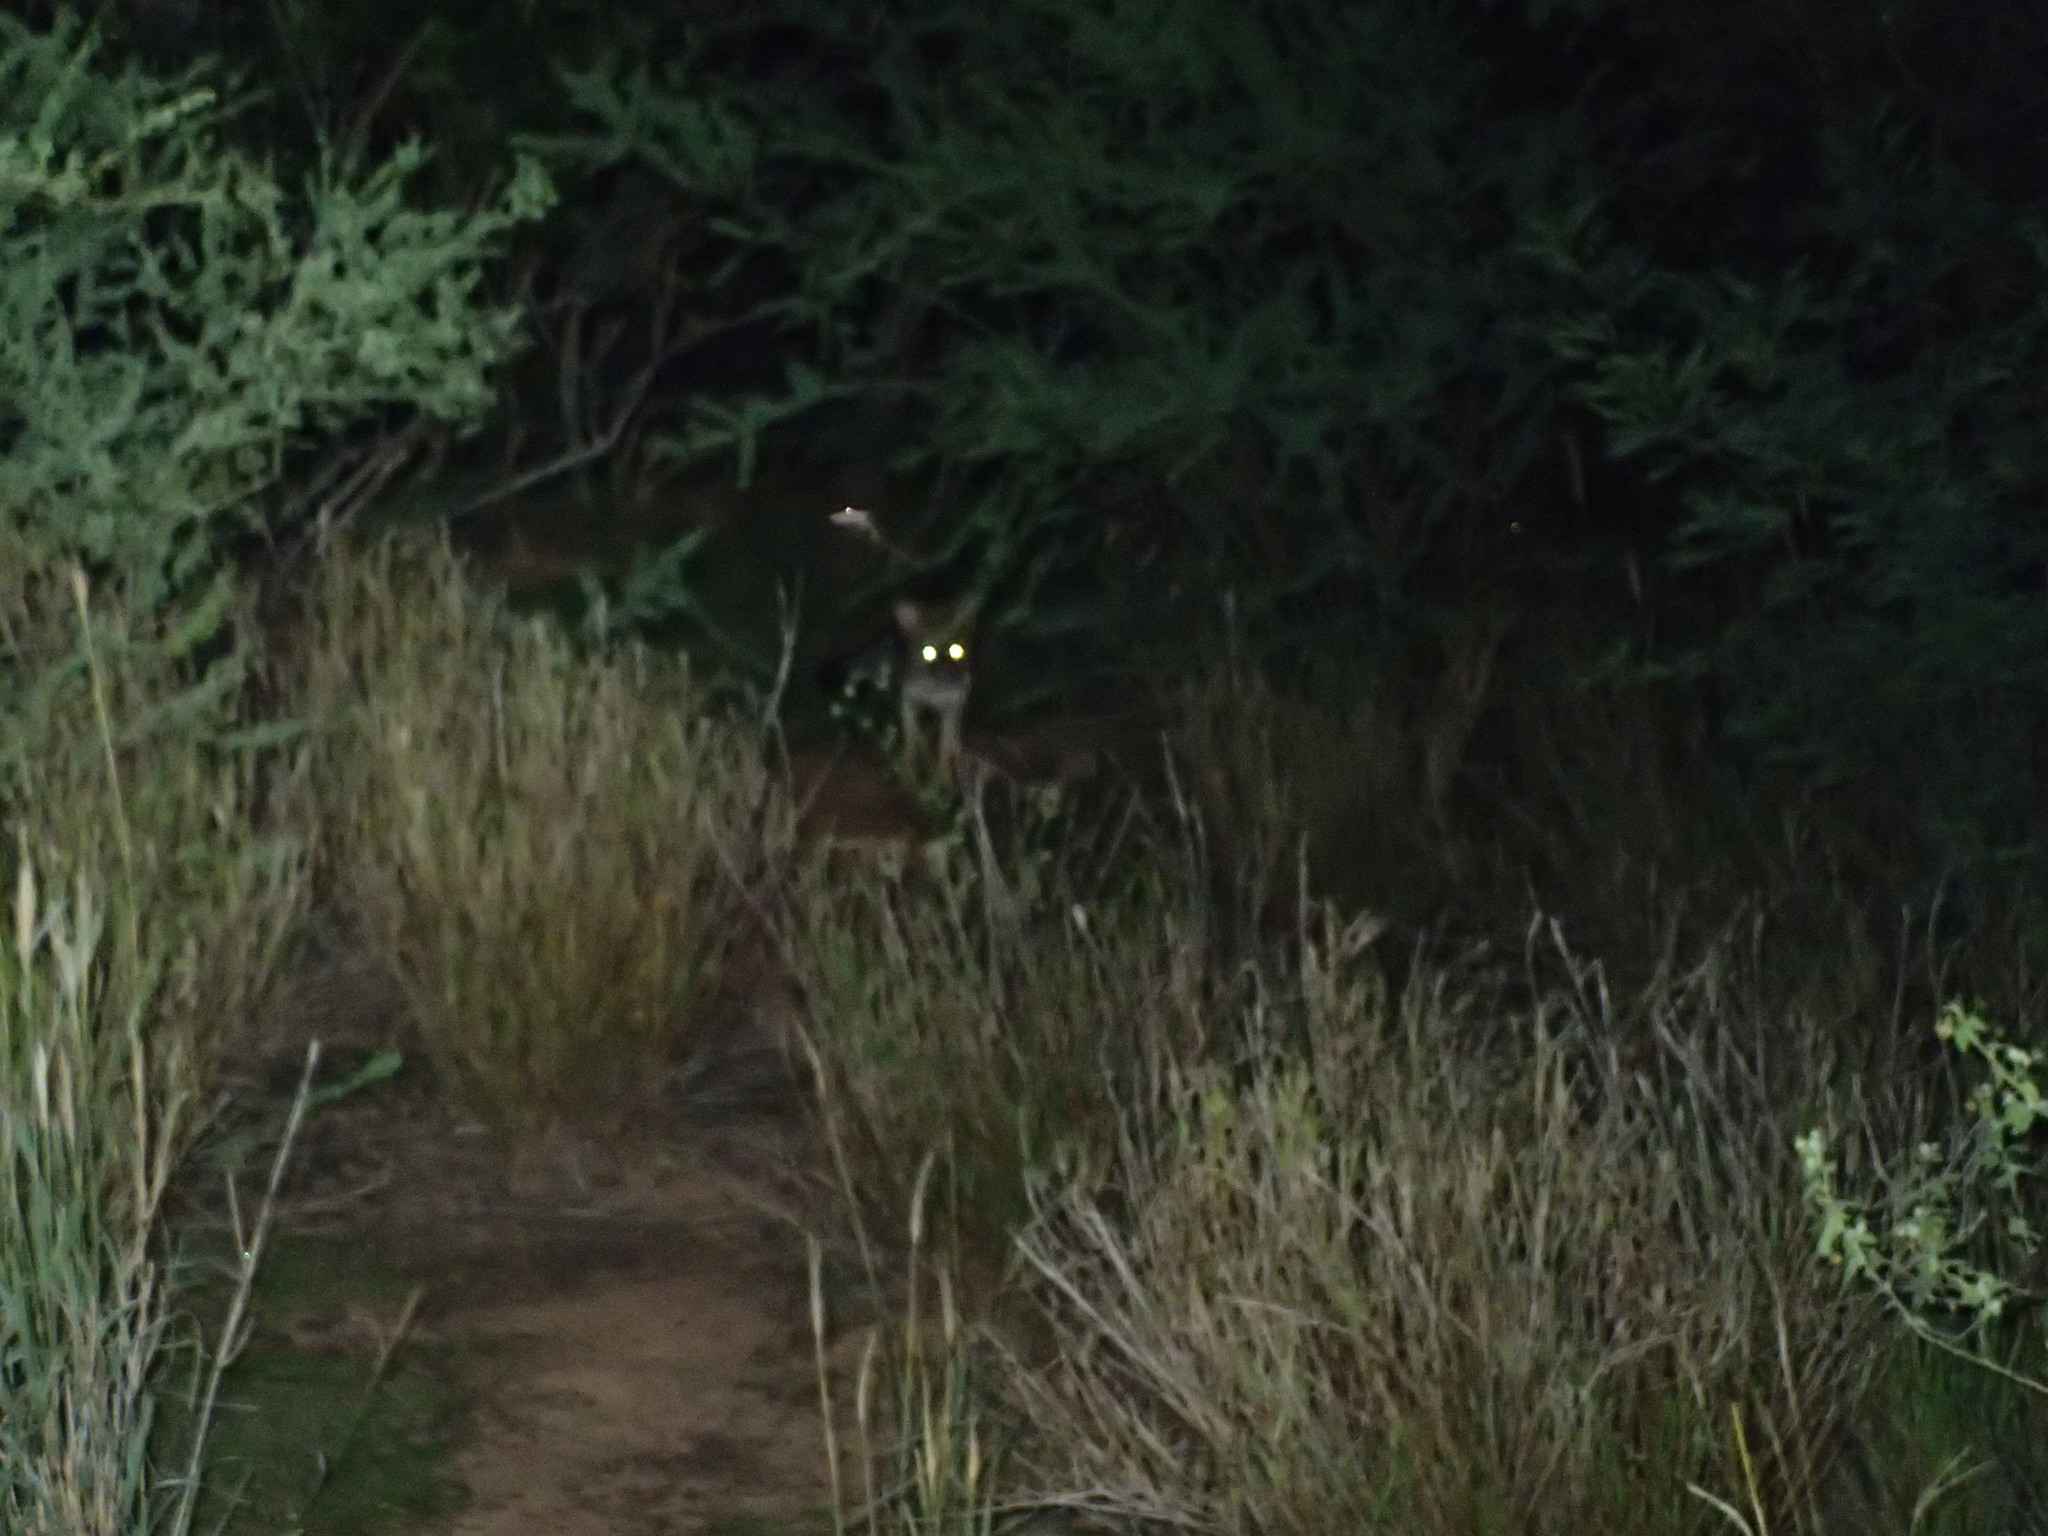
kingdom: Animalia
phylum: Chordata
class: Mammalia
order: Carnivora
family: Canidae
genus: Lycalopex
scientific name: Lycalopex gymnocercus
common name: Pampas fox
